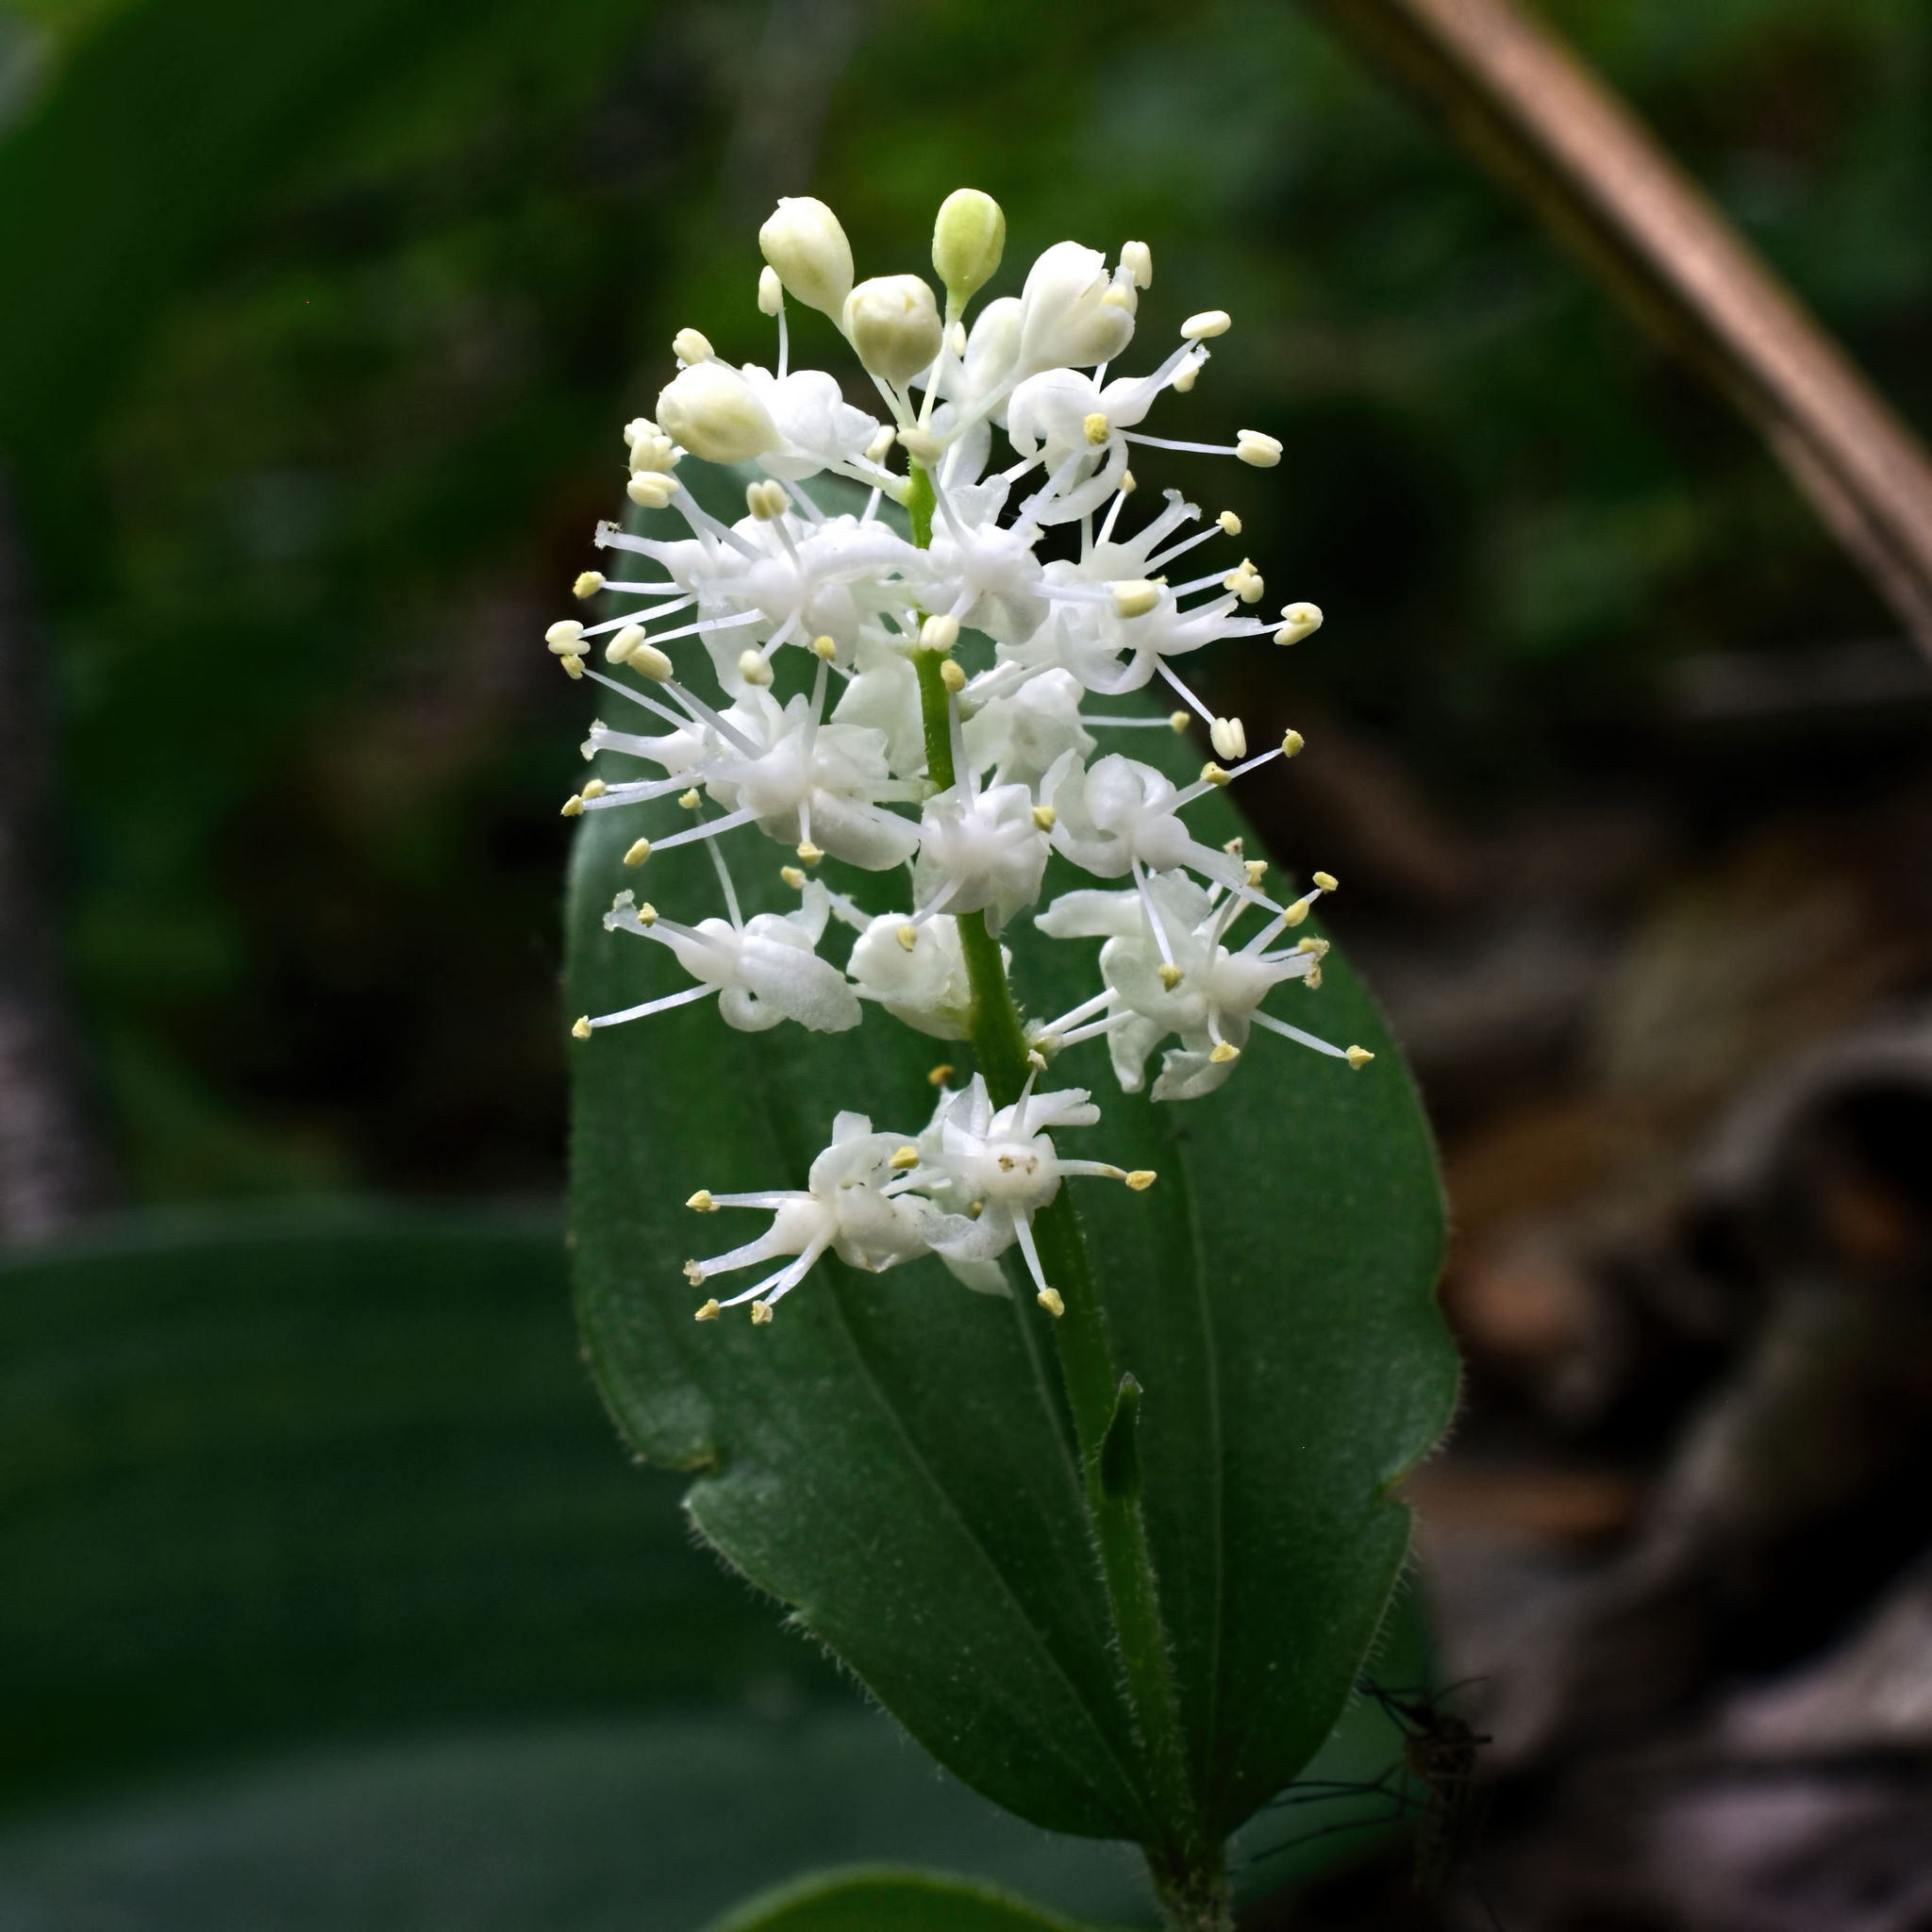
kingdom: Plantae
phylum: Tracheophyta
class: Liliopsida
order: Asparagales
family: Asparagaceae
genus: Maianthemum
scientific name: Maianthemum canadense
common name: False lily-of-the-valley
